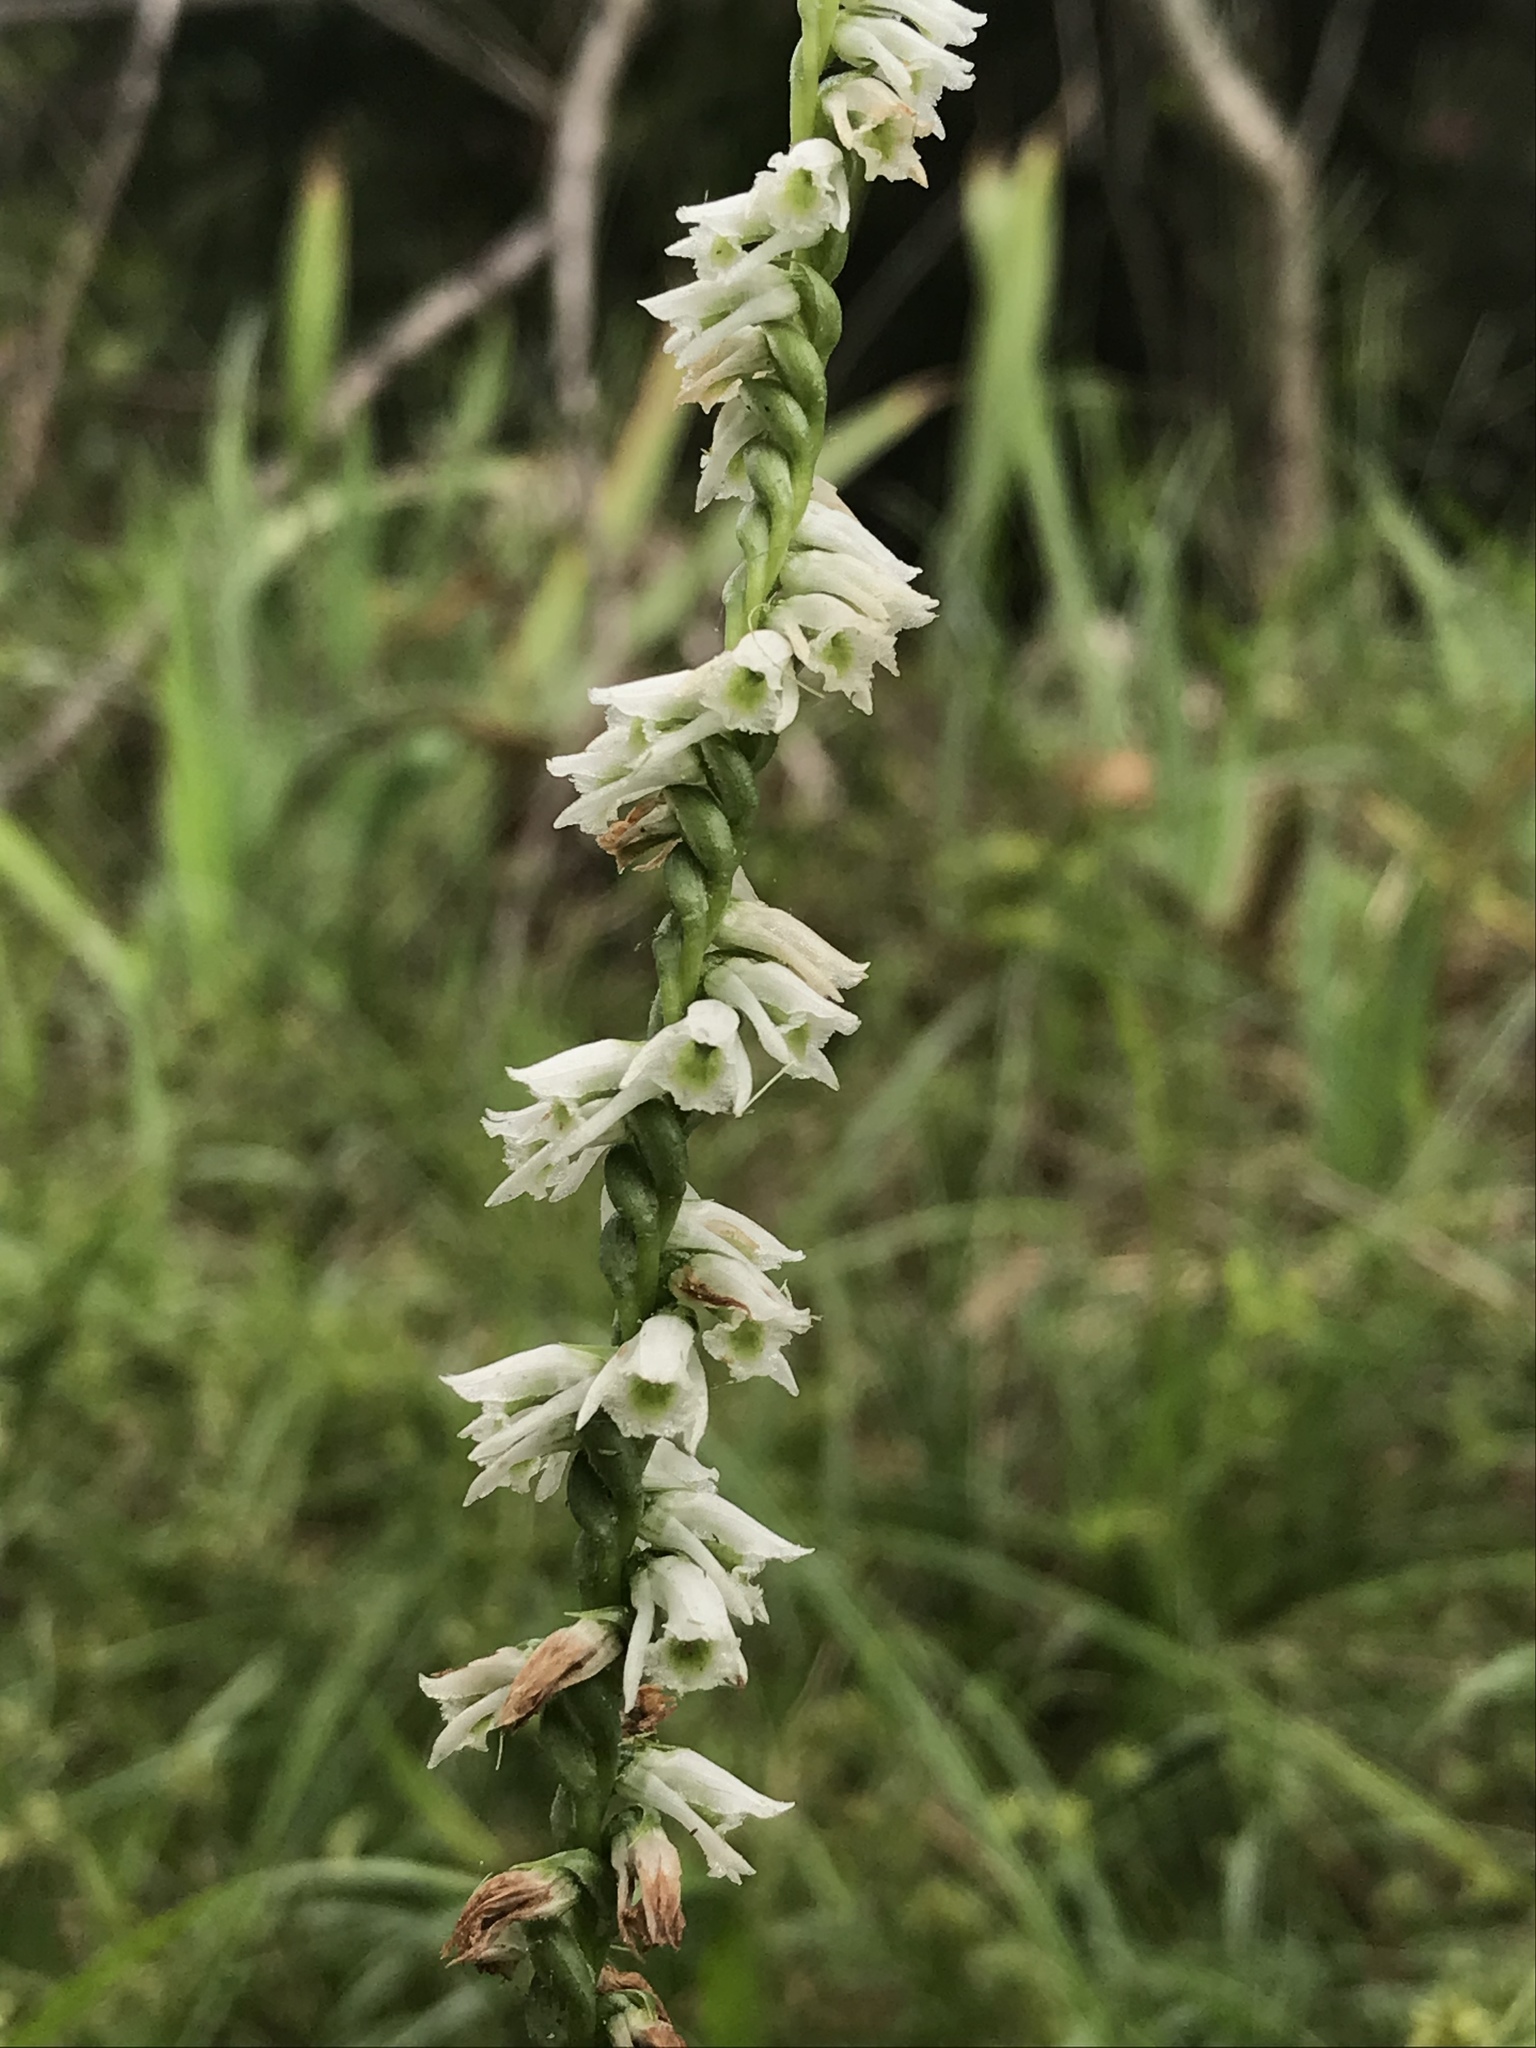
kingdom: Plantae
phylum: Tracheophyta
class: Liliopsida
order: Asparagales
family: Orchidaceae
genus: Spiranthes
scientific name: Spiranthes lacera
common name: Northern slender ladies'-tresses
